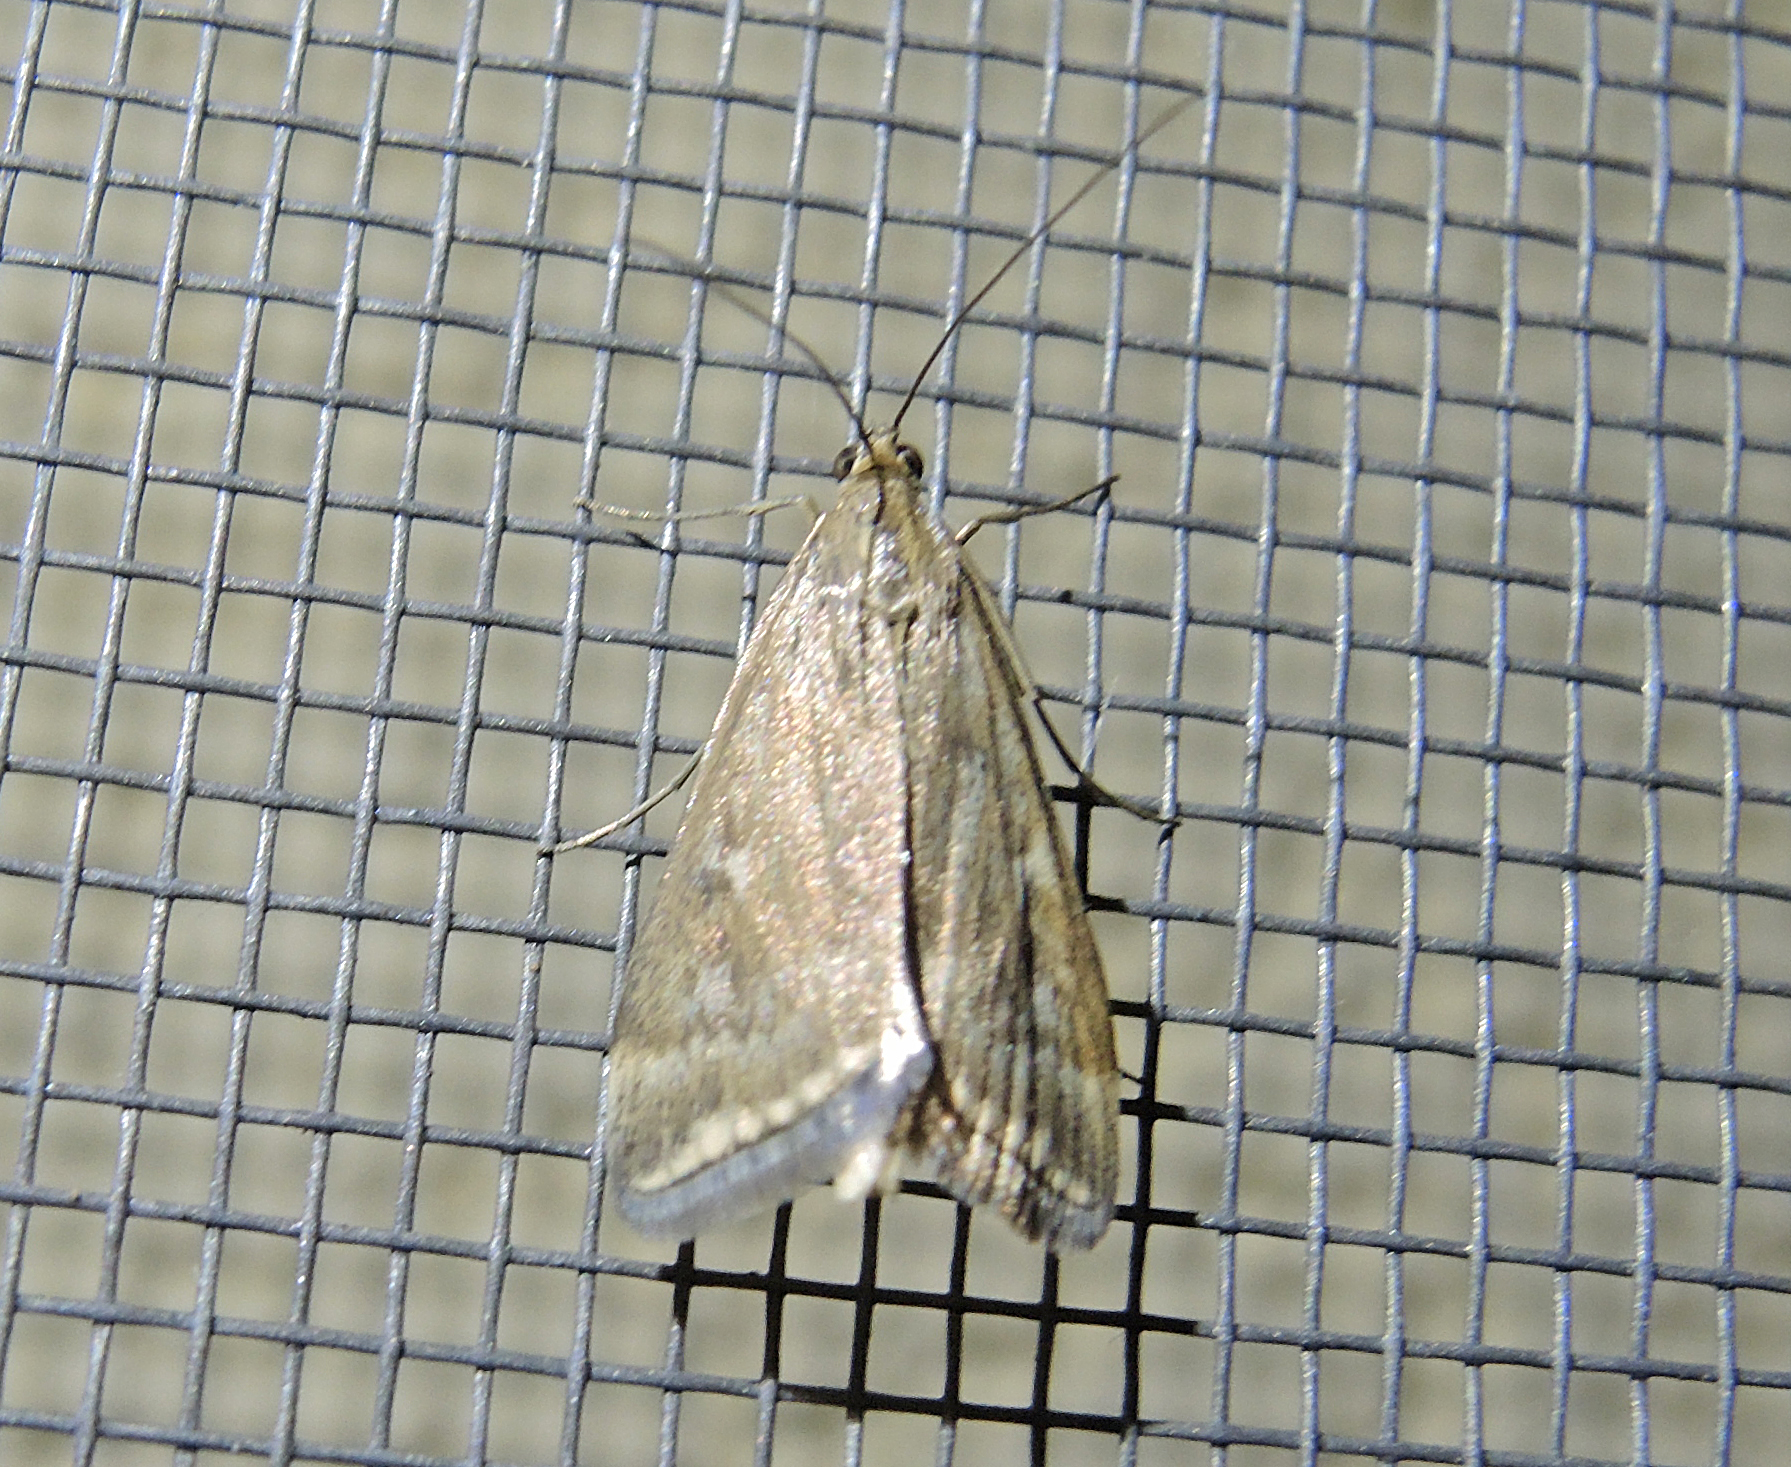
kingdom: Animalia
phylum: Arthropoda
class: Insecta
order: Lepidoptera
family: Crambidae
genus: Loxostege
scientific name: Loxostege sticticalis
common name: Crambid moth
